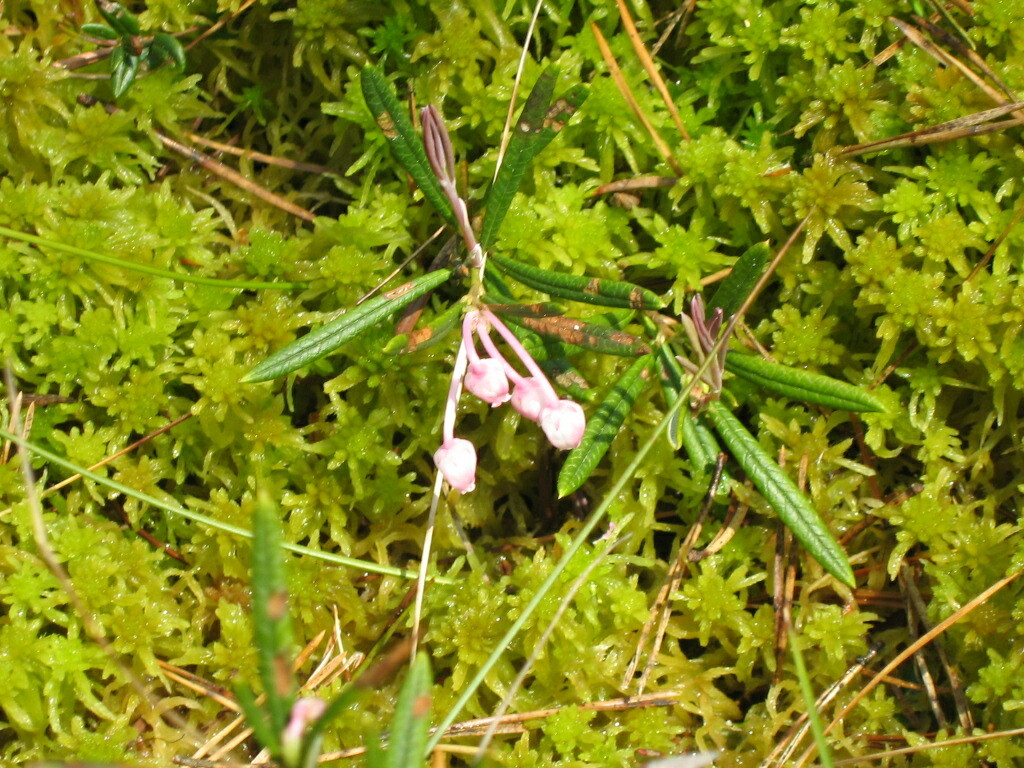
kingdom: Plantae
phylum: Tracheophyta
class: Magnoliopsida
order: Ericales
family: Ericaceae
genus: Andromeda
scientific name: Andromeda polifolia
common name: Bog-rosemary
